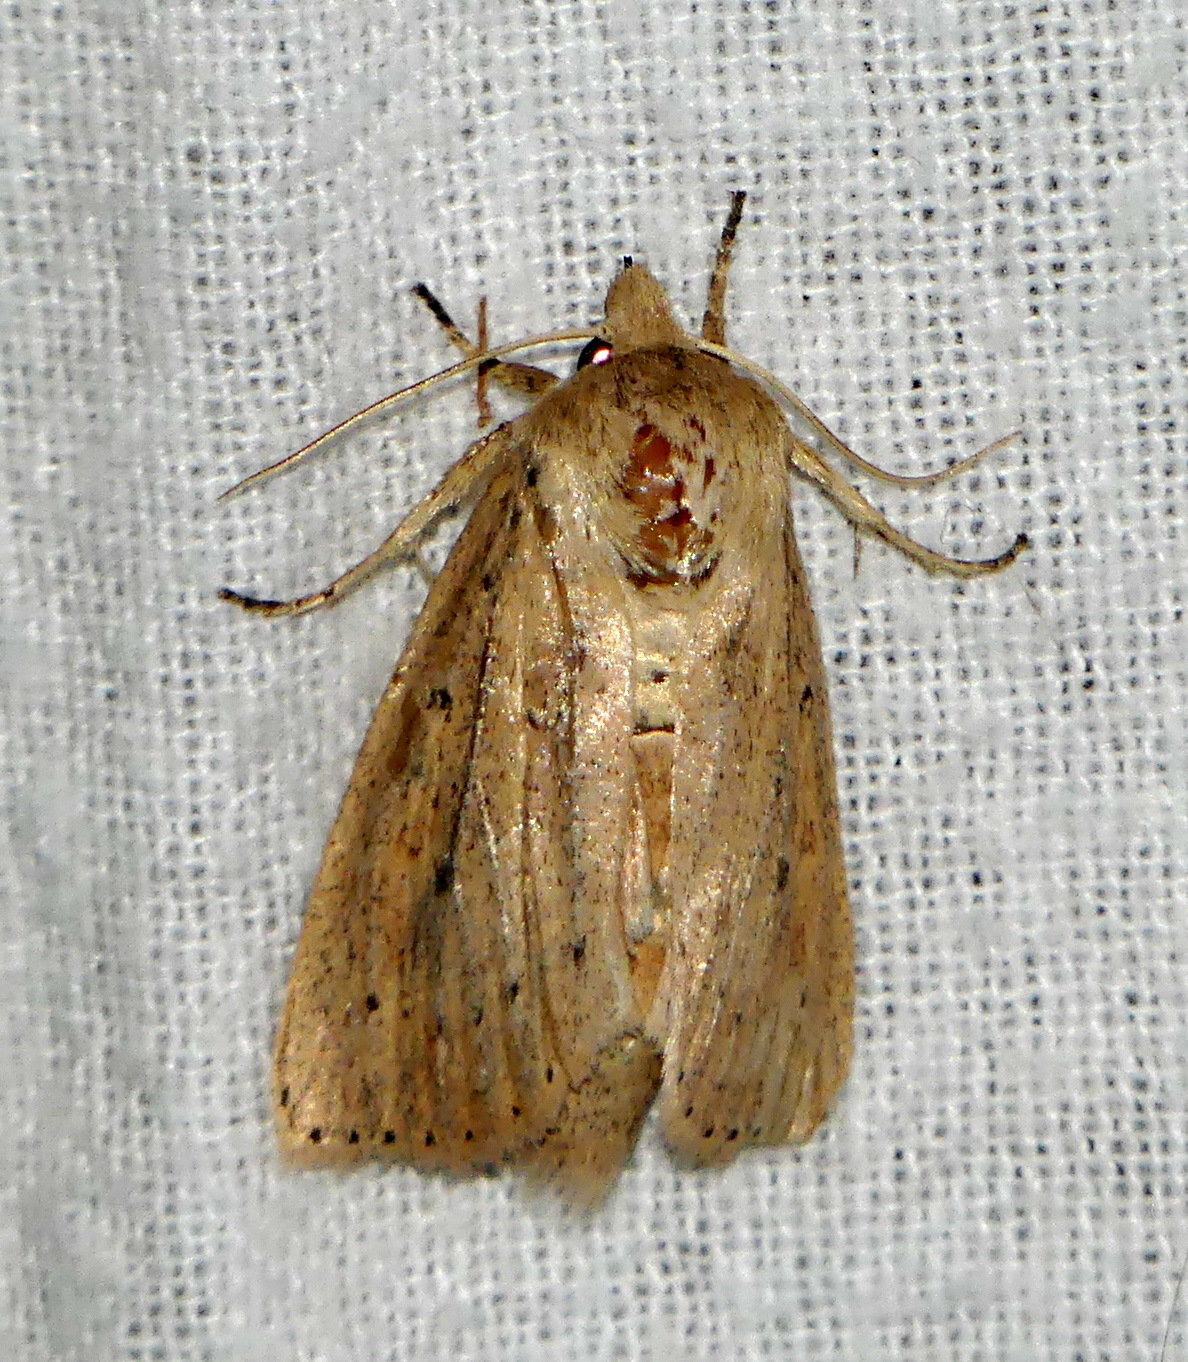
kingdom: Animalia
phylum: Arthropoda
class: Insecta
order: Lepidoptera
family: Noctuidae
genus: Globia
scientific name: Globia oblonga
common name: Oblong sedge borer moth
